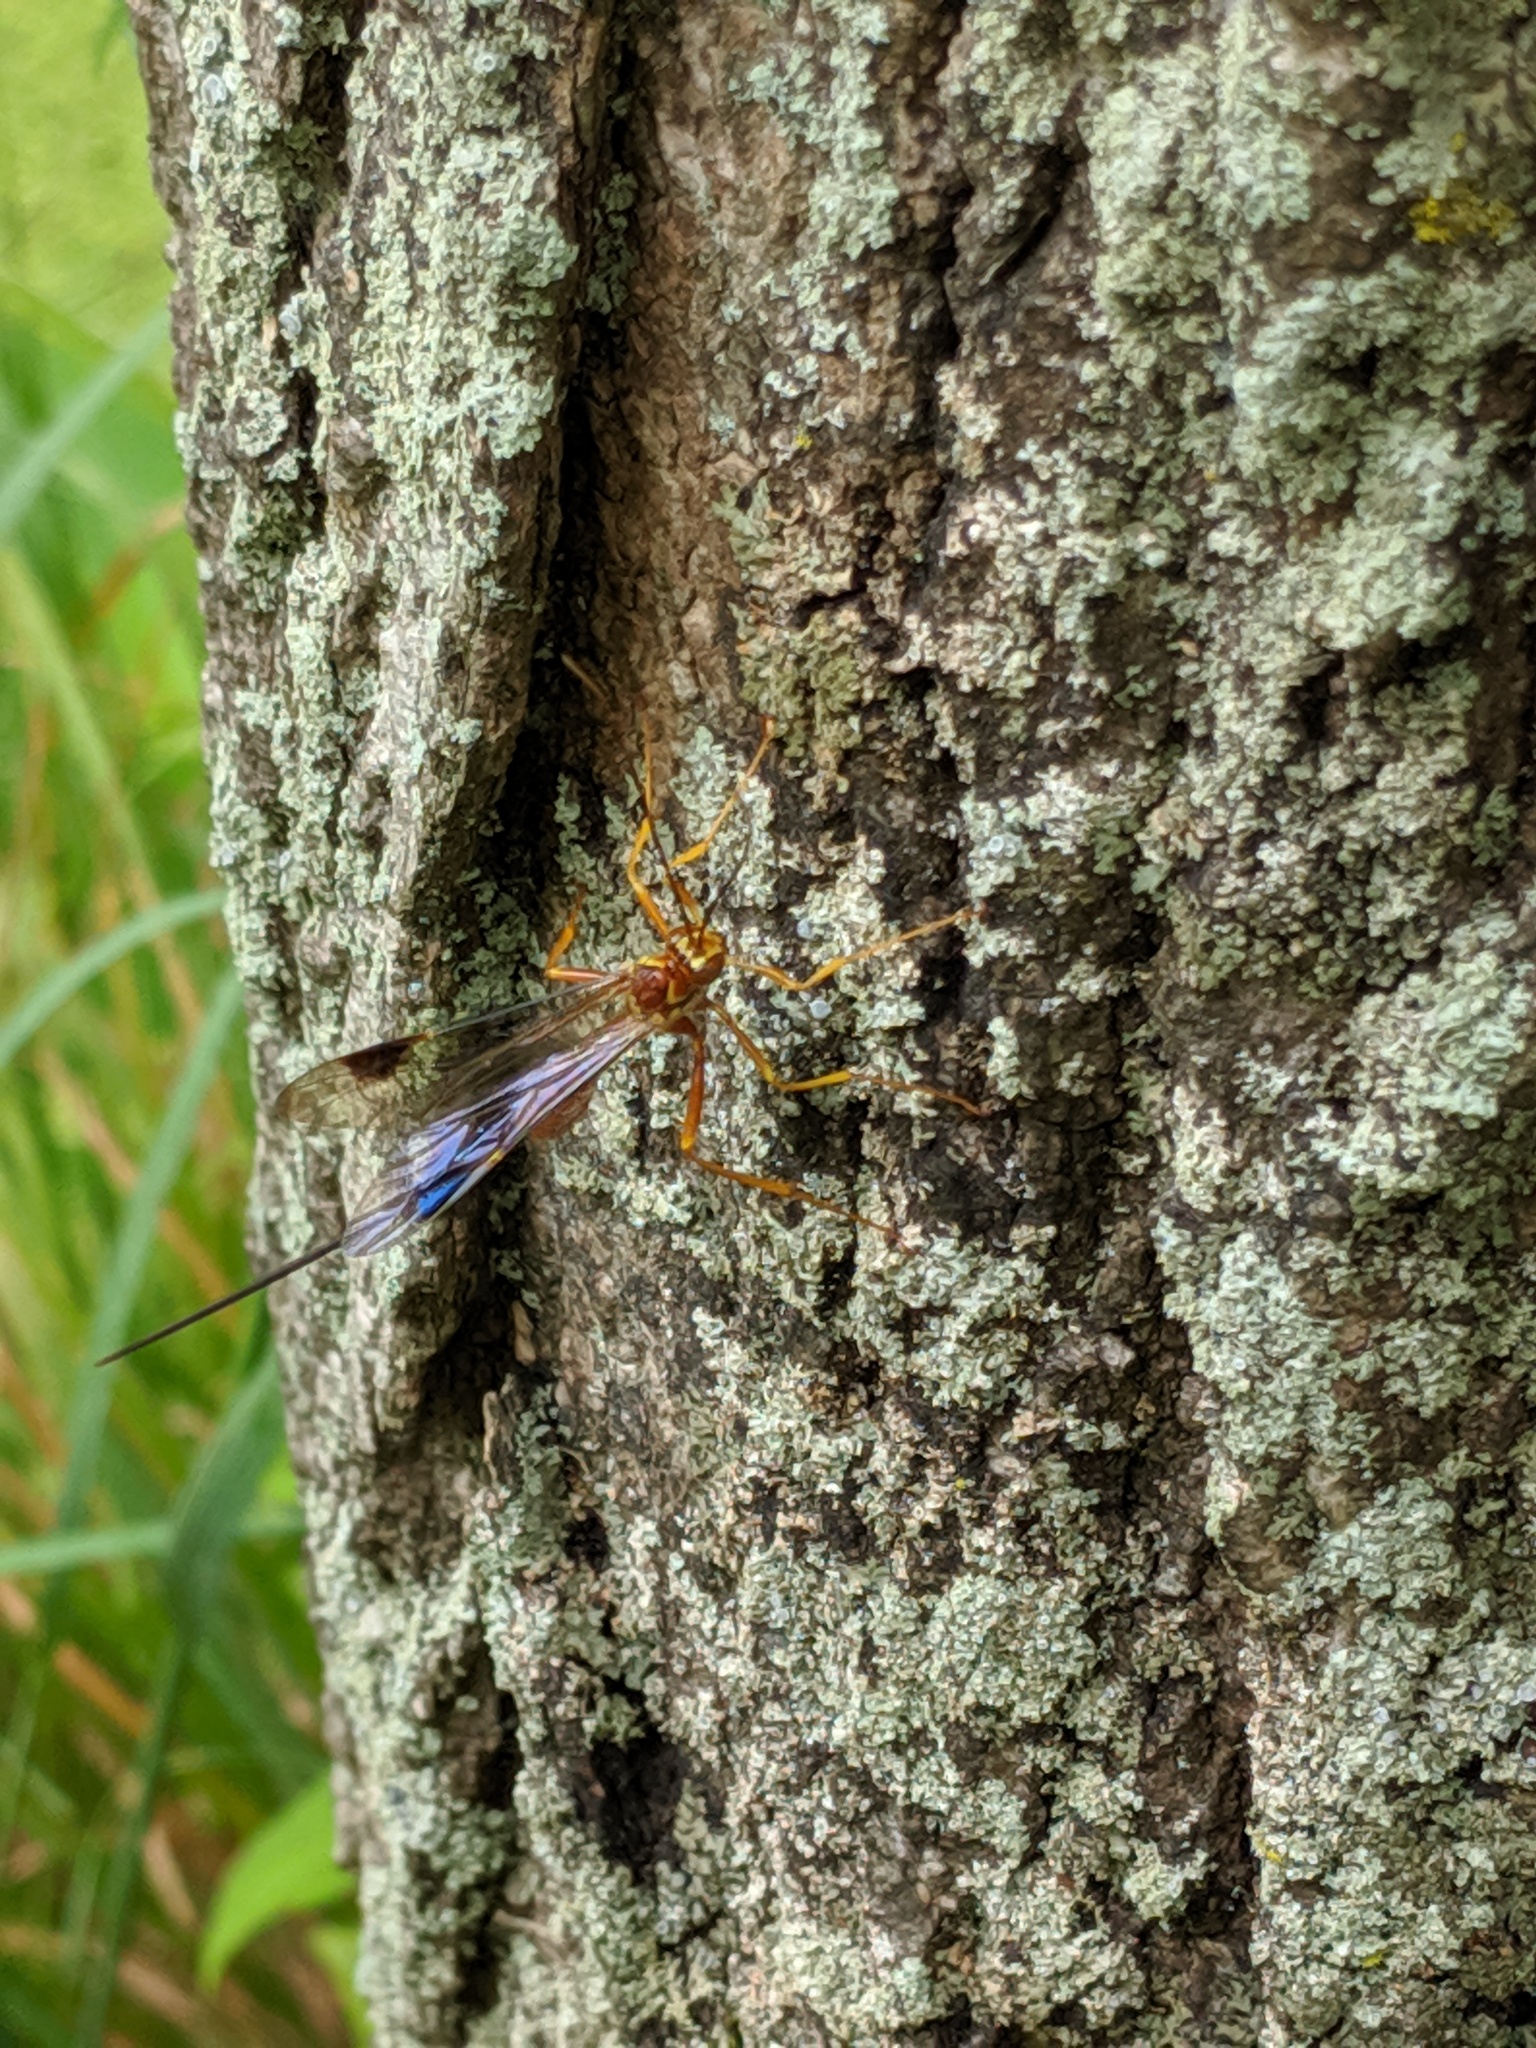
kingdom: Animalia
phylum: Arthropoda
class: Insecta
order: Hymenoptera
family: Ichneumonidae
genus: Megarhyssa
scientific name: Megarhyssa greenei
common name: Greene's giant ichneumonid wasp
